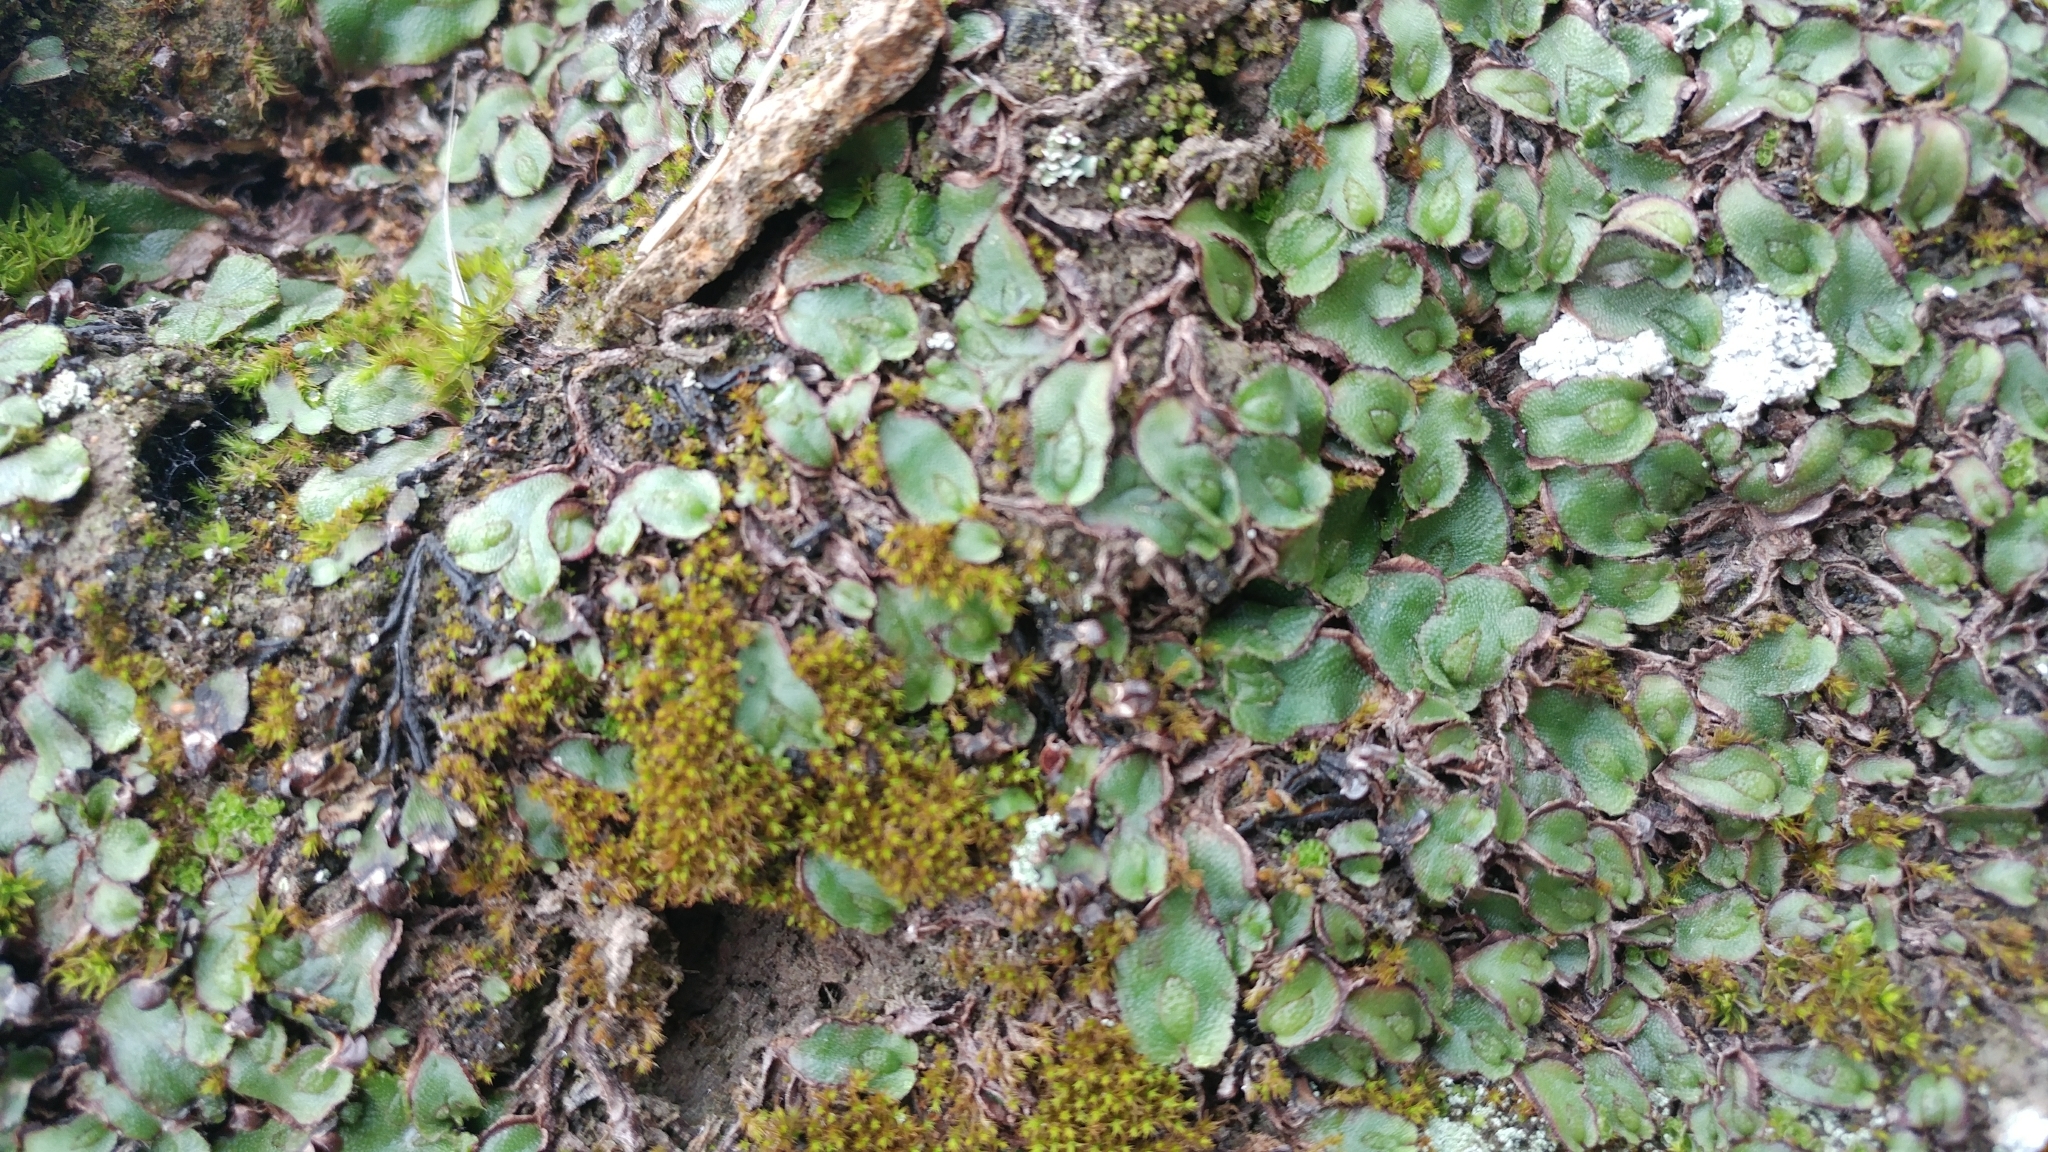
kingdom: Plantae
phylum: Marchantiophyta
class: Marchantiopsida
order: Marchantiales
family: Aytoniaceae
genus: Asterella
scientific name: Asterella californica
